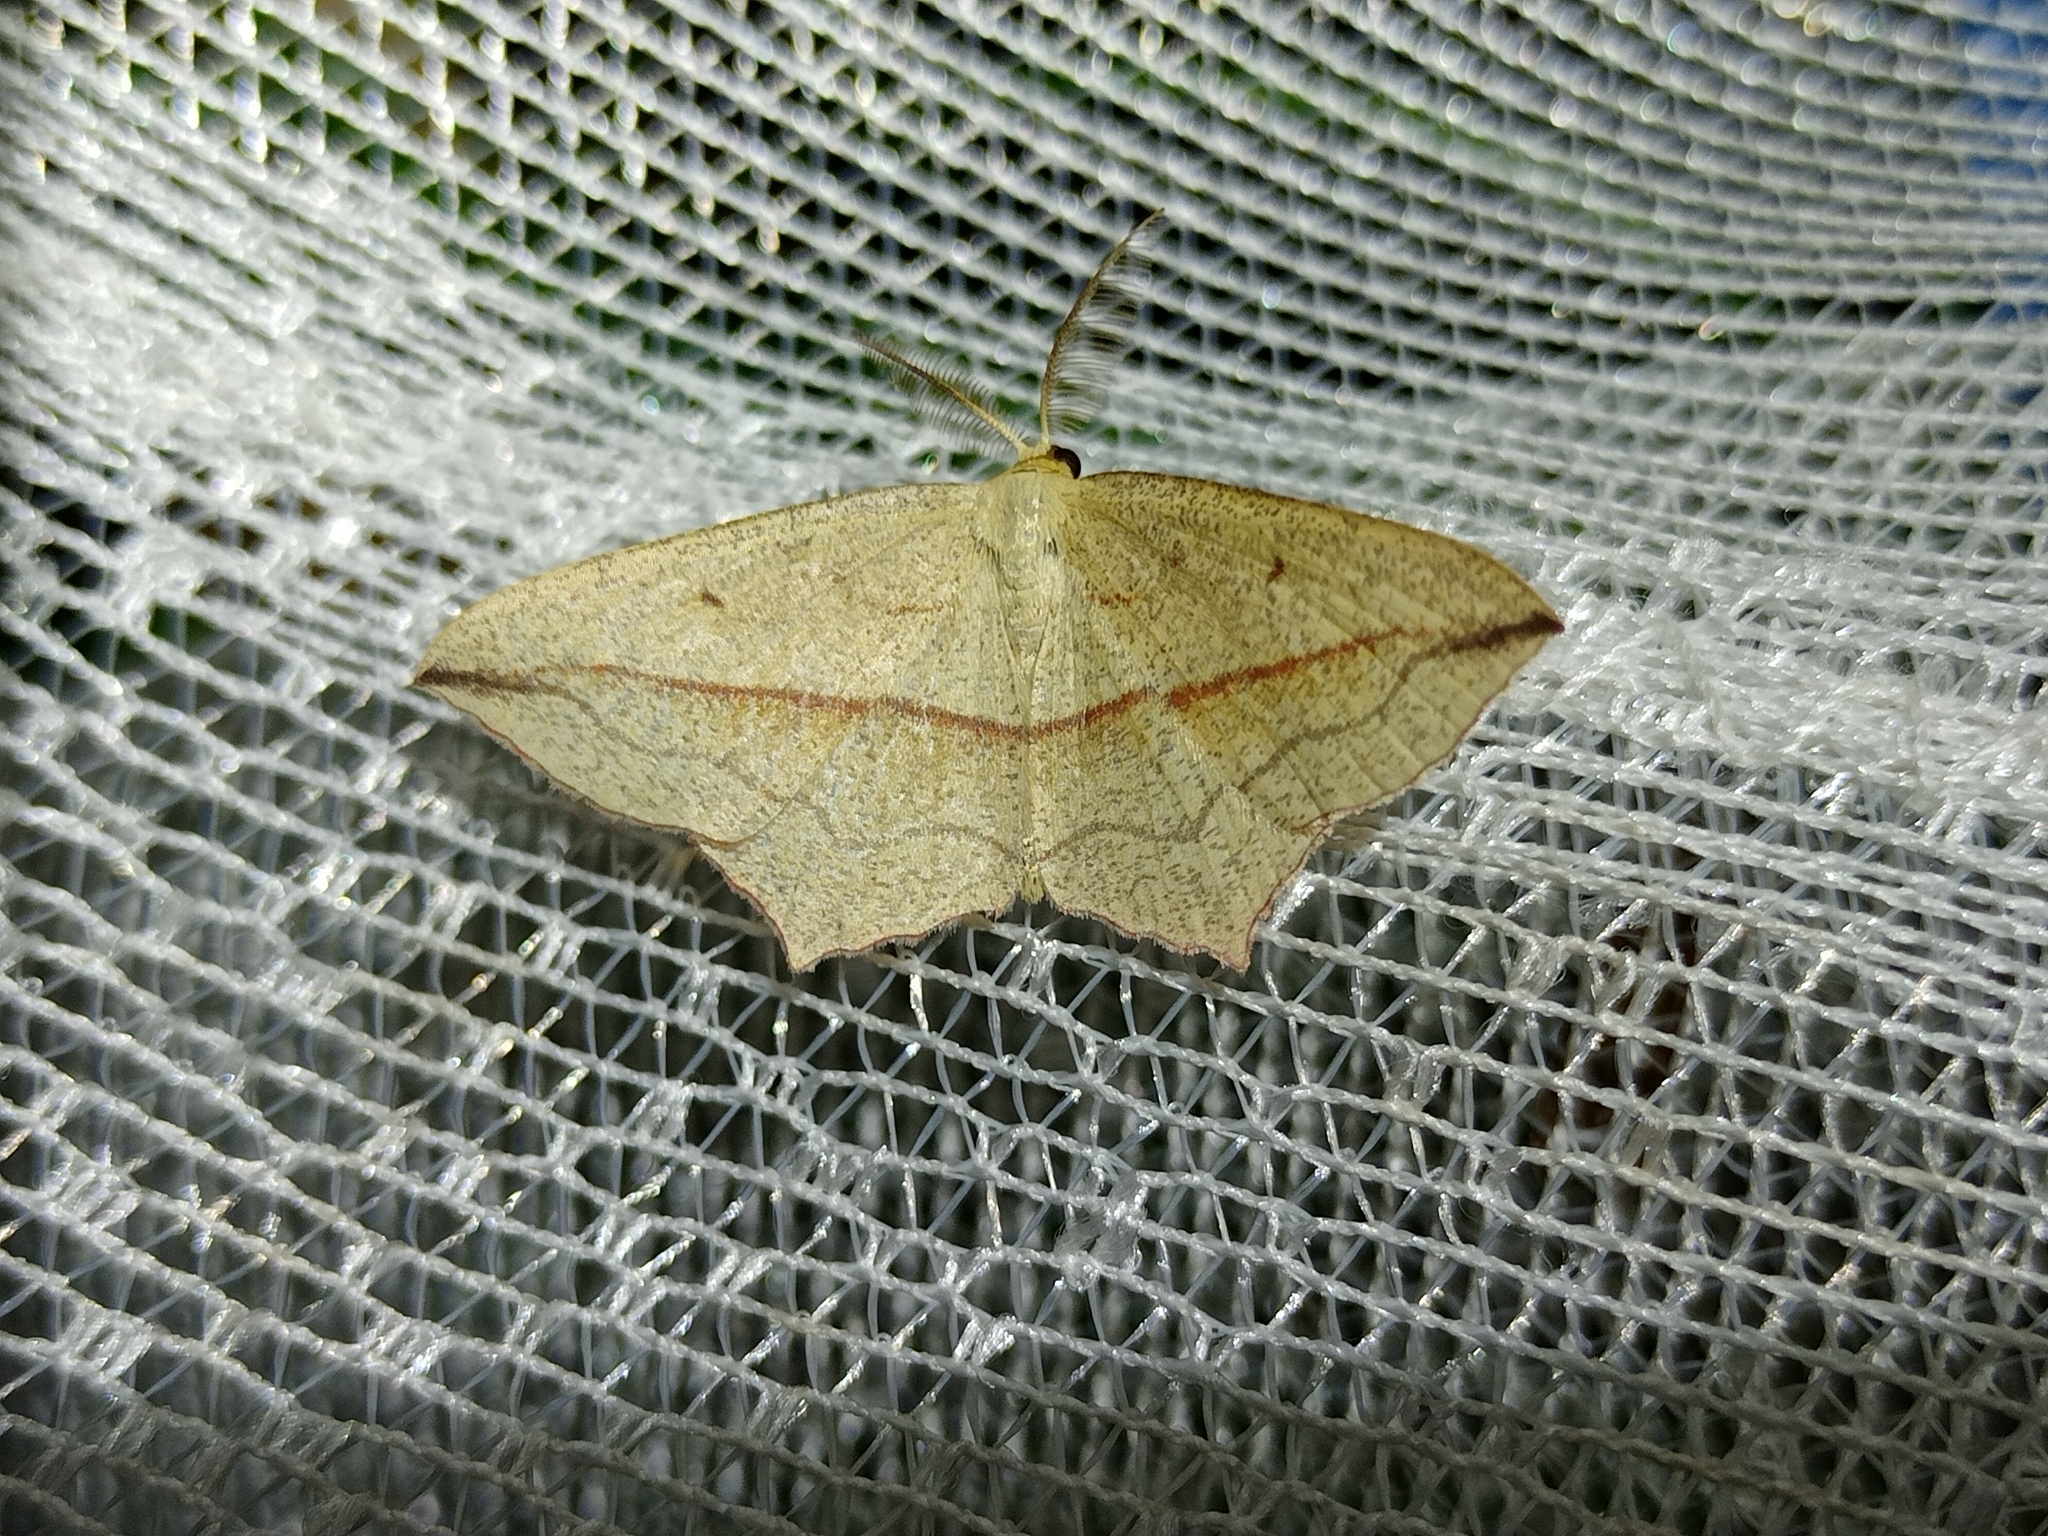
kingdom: Animalia
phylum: Arthropoda
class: Insecta
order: Lepidoptera
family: Geometridae
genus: Timandra
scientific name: Timandra comae
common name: Blood-vein
